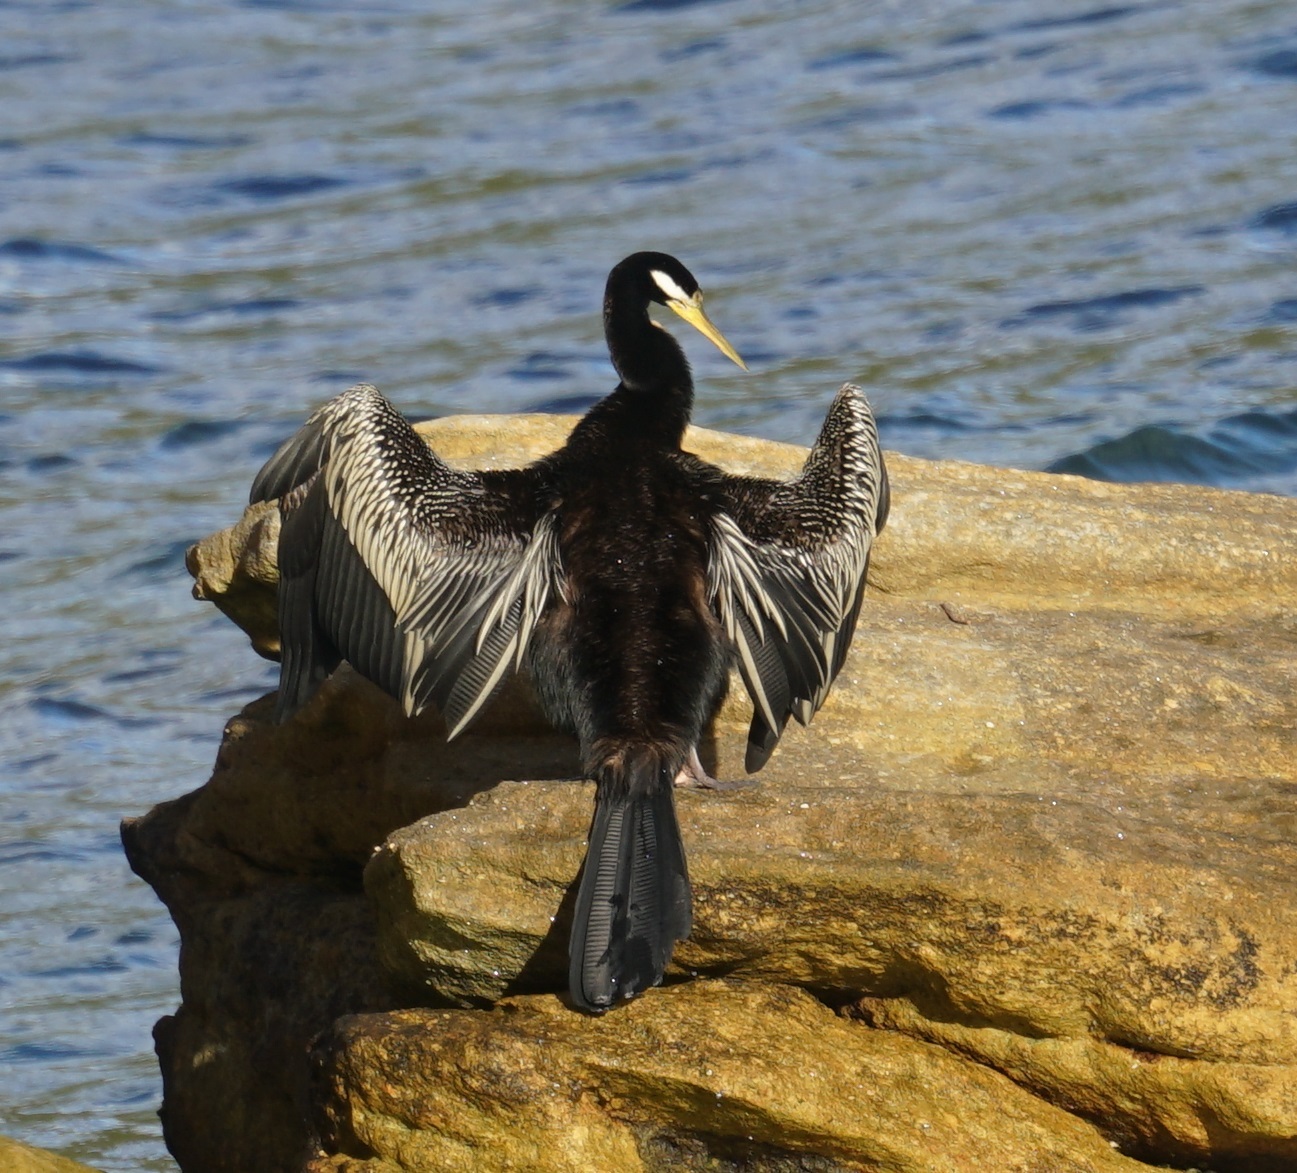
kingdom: Animalia
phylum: Chordata
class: Aves
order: Suliformes
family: Anhingidae
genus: Anhinga
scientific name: Anhinga novaehollandiae
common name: Australasian darter
